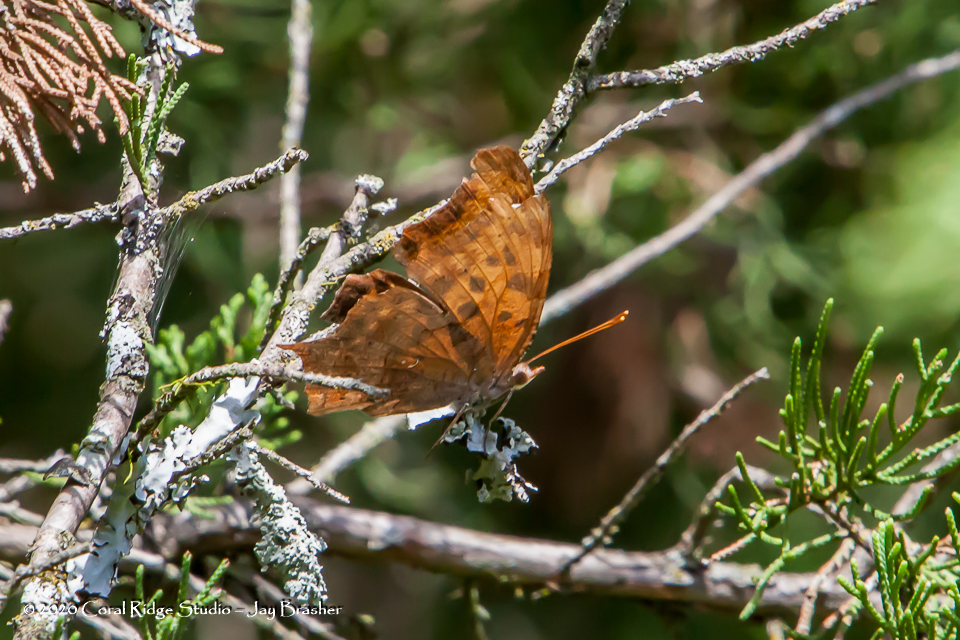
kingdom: Animalia
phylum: Arthropoda
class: Insecta
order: Lepidoptera
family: Nymphalidae
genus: Polygonia
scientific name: Polygonia interrogationis
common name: Question mark
